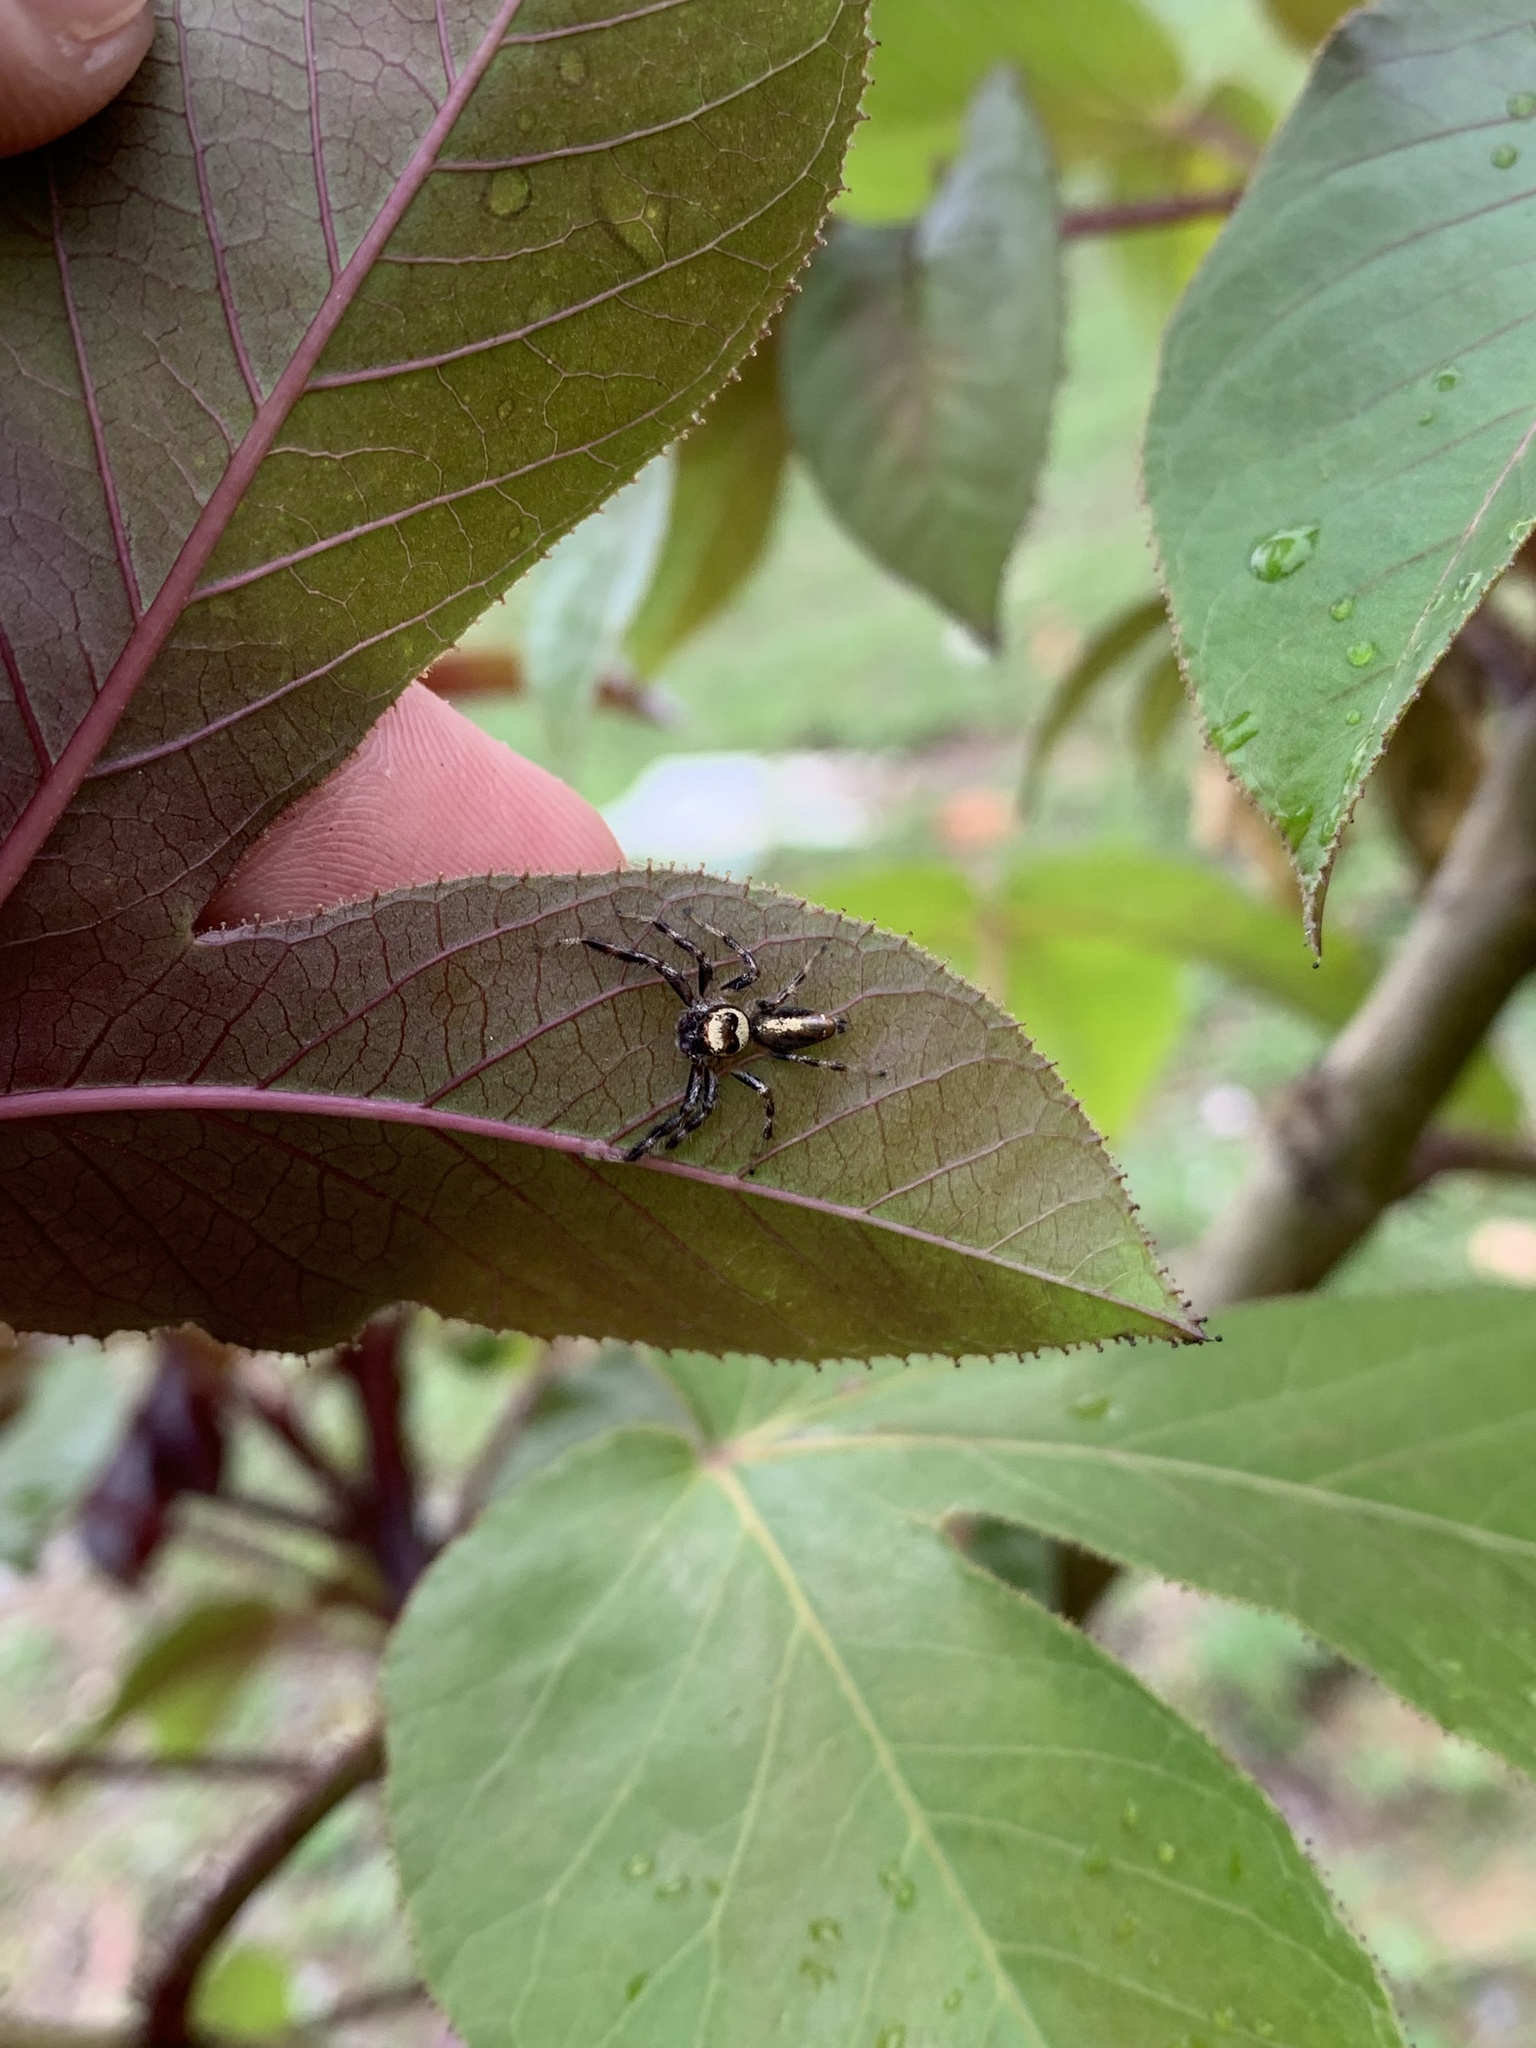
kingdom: Animalia
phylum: Arthropoda
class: Arachnida
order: Araneae
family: Salticidae
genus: Thyene
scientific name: Thyene coccineovittata
